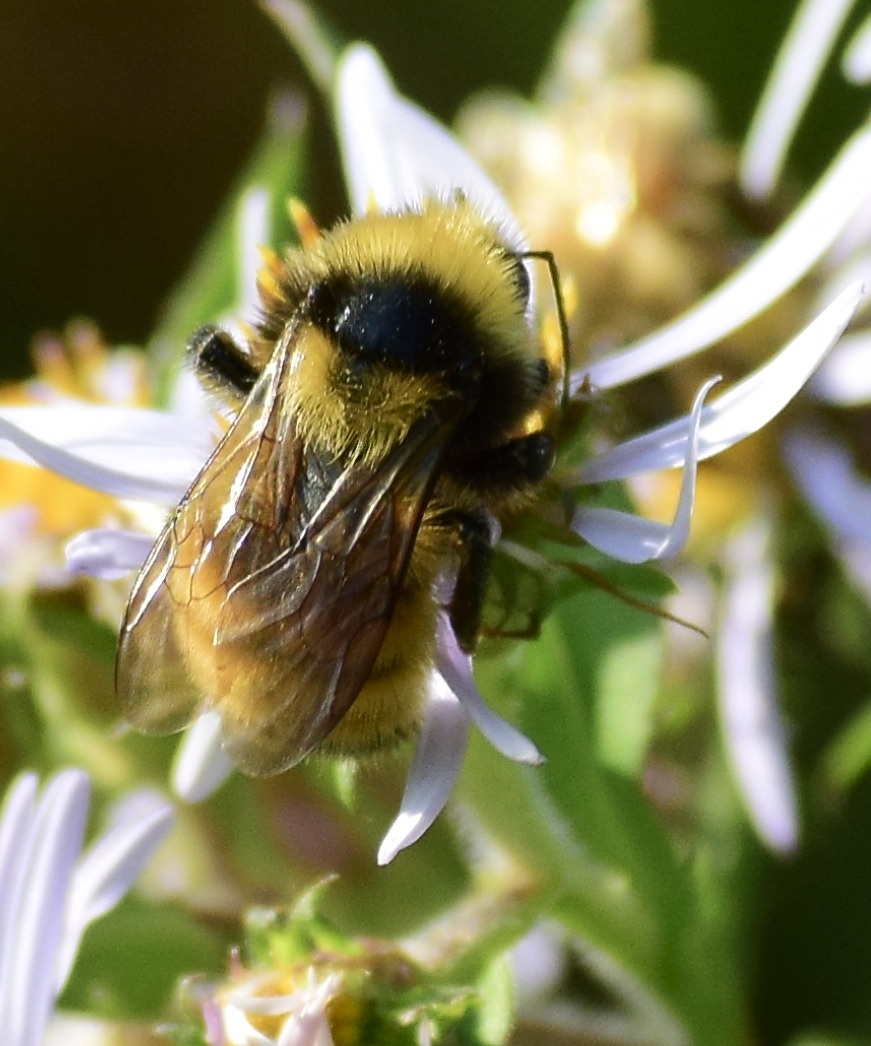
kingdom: Animalia
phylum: Arthropoda
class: Insecta
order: Hymenoptera
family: Apidae
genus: Bombus
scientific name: Bombus borealis
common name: Northern amber bumble bee
